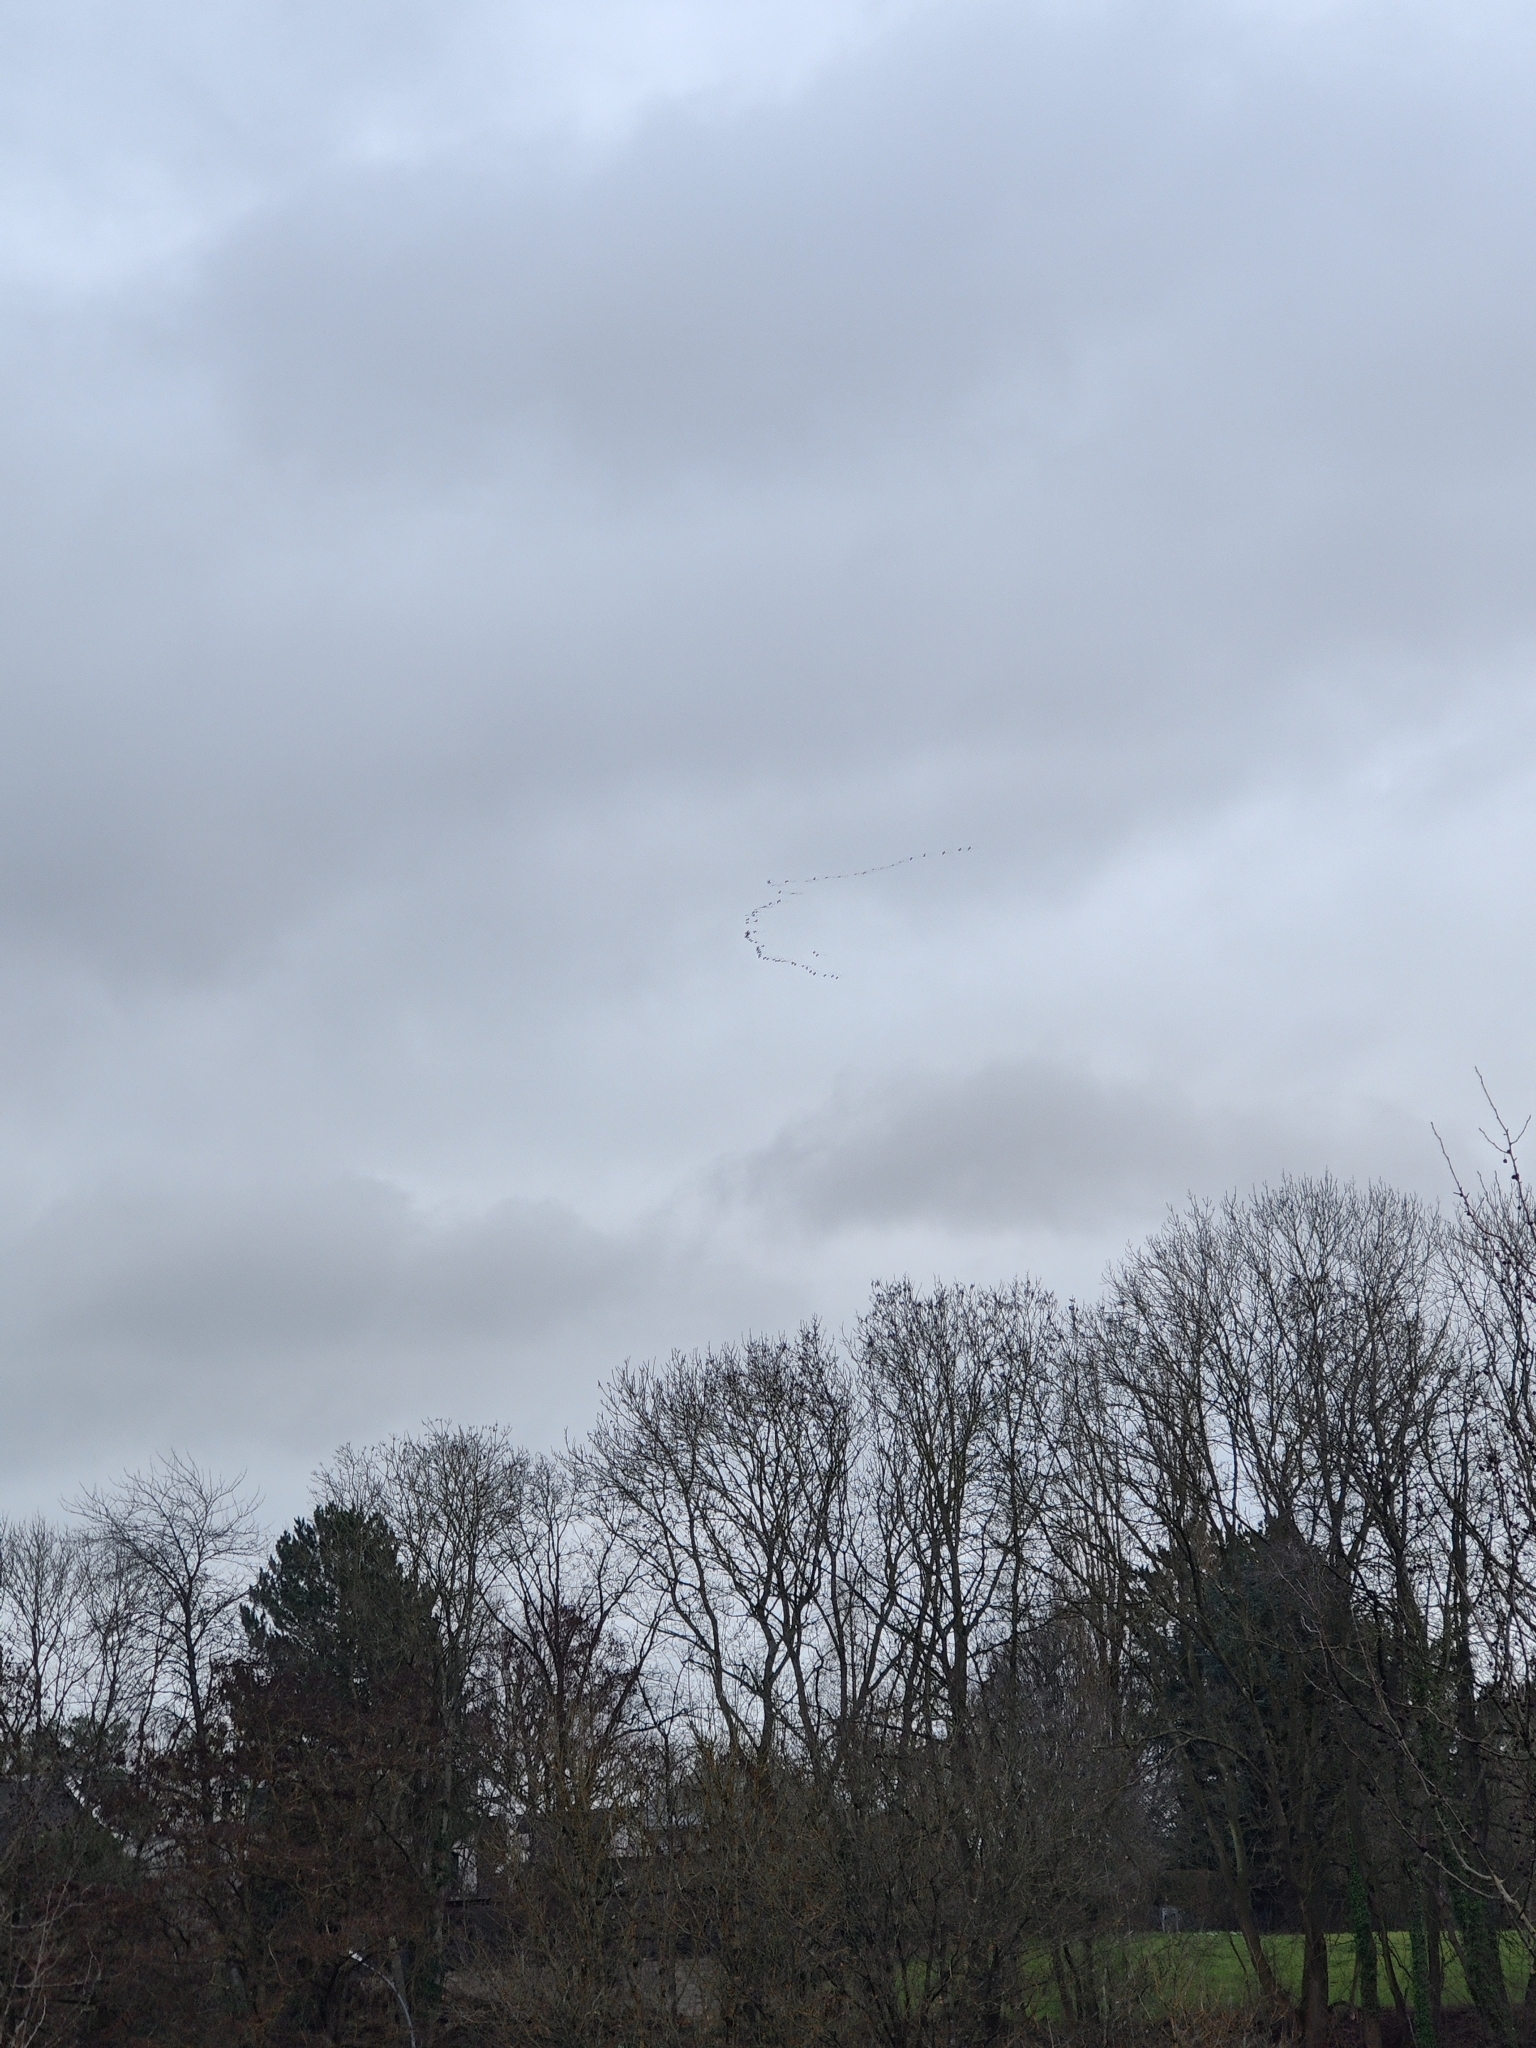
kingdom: Animalia
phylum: Chordata
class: Aves
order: Gruiformes
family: Gruidae
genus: Grus
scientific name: Grus grus
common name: Common crane
